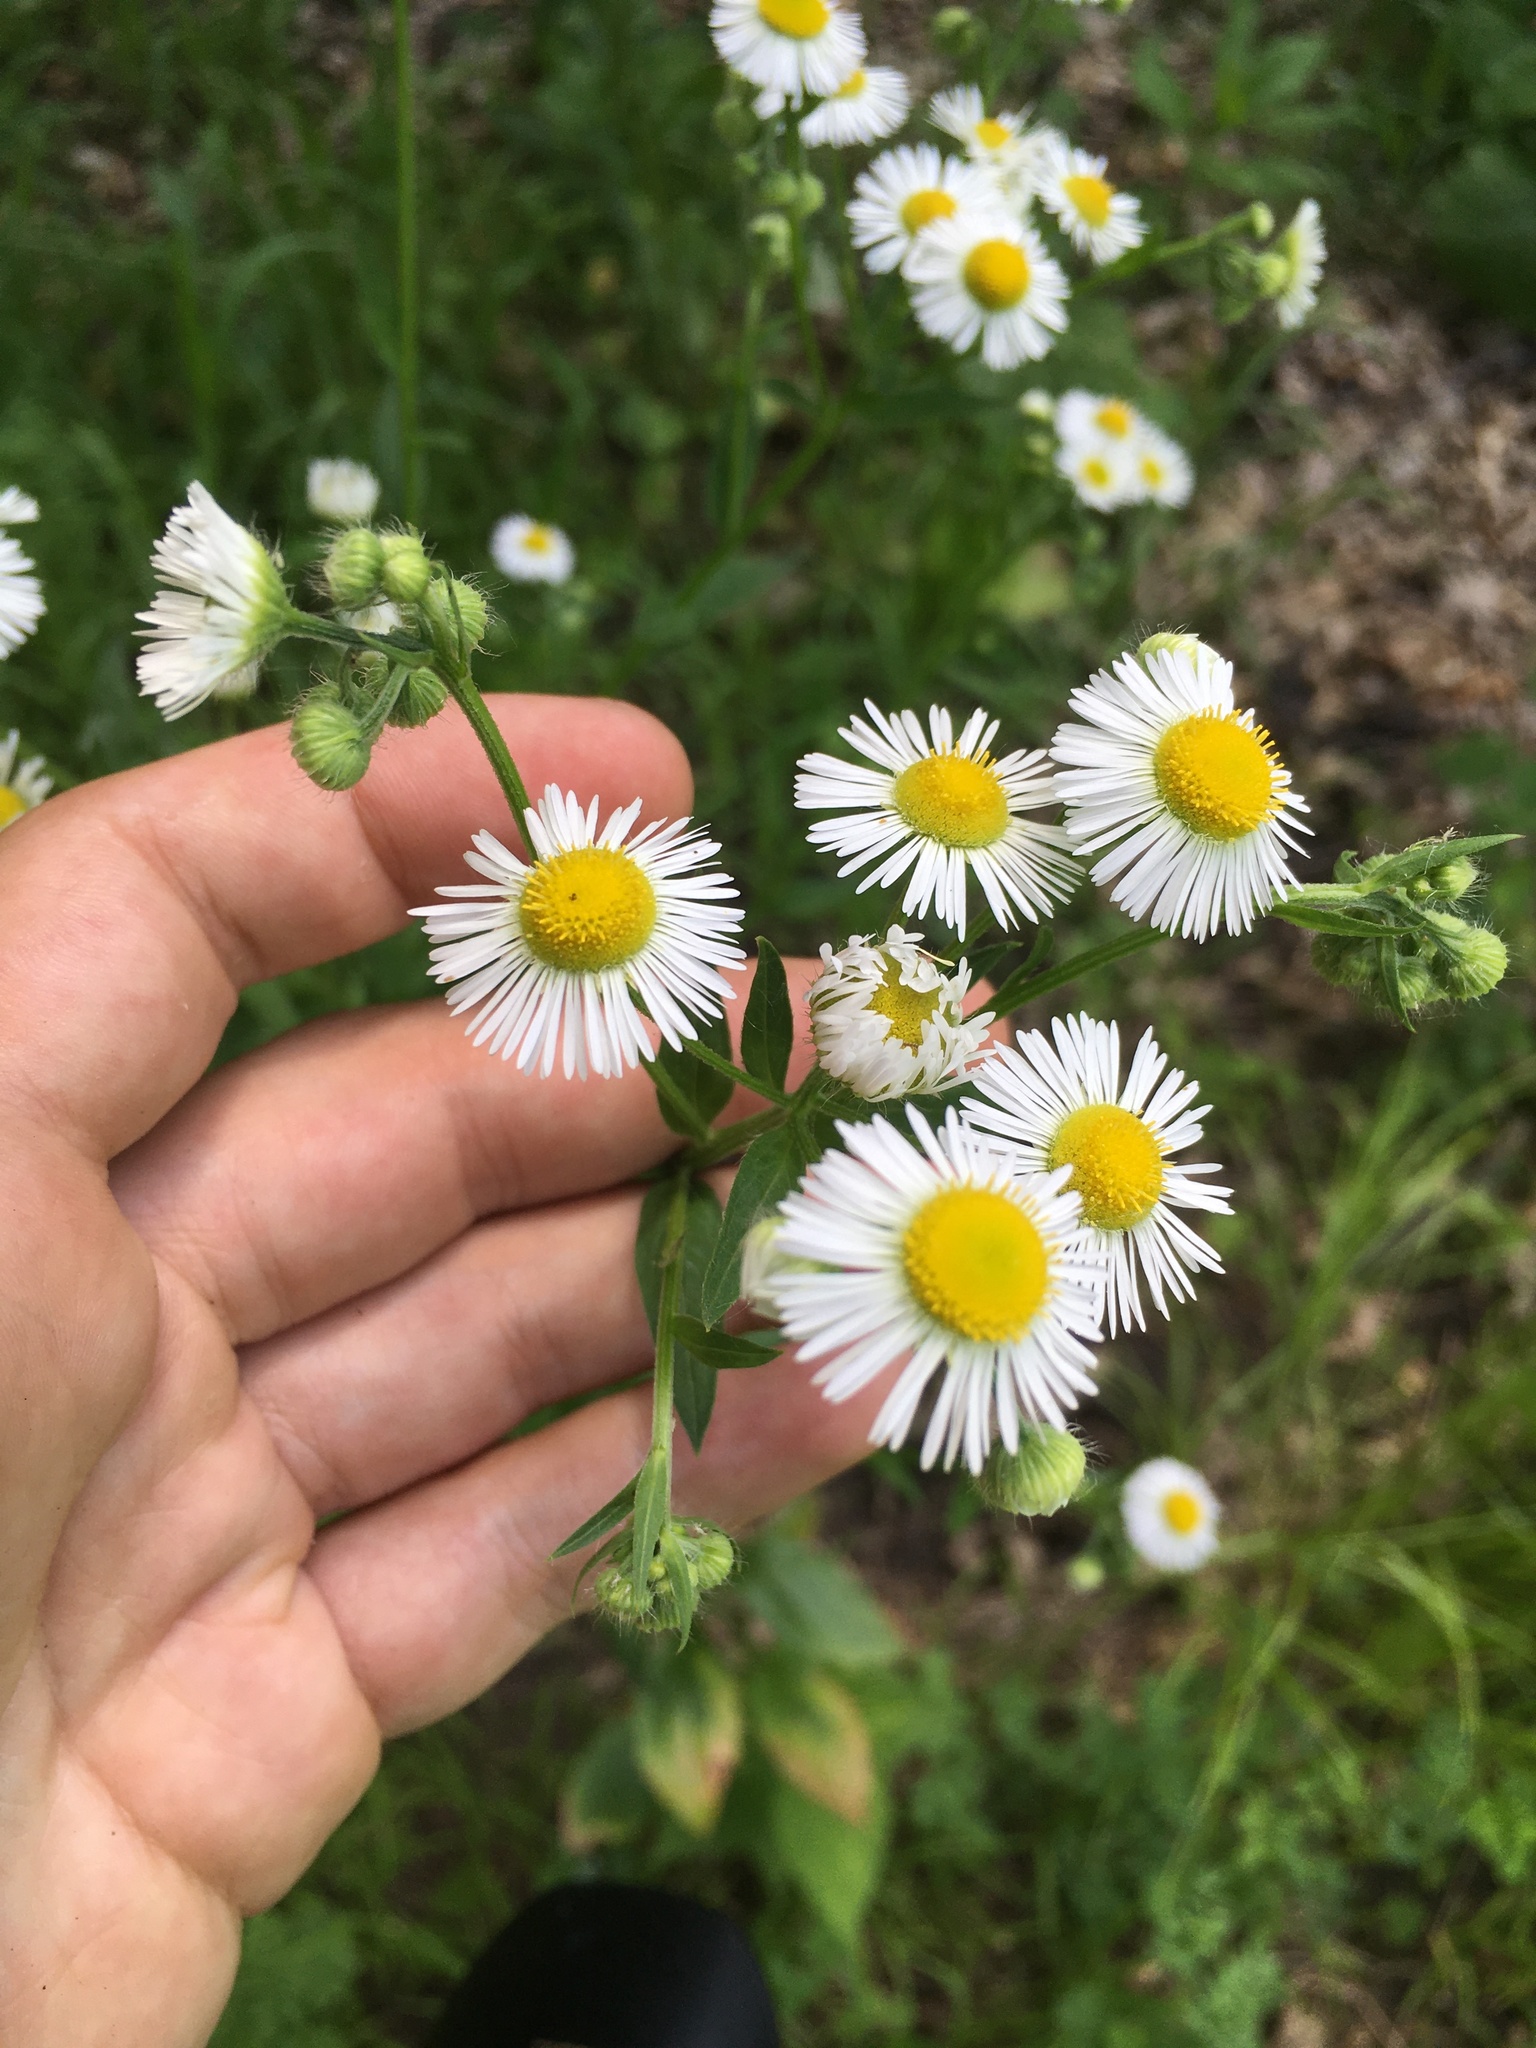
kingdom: Plantae
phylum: Tracheophyta
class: Magnoliopsida
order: Asterales
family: Asteraceae
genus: Erigeron
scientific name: Erigeron annuus
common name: Tall fleabane
